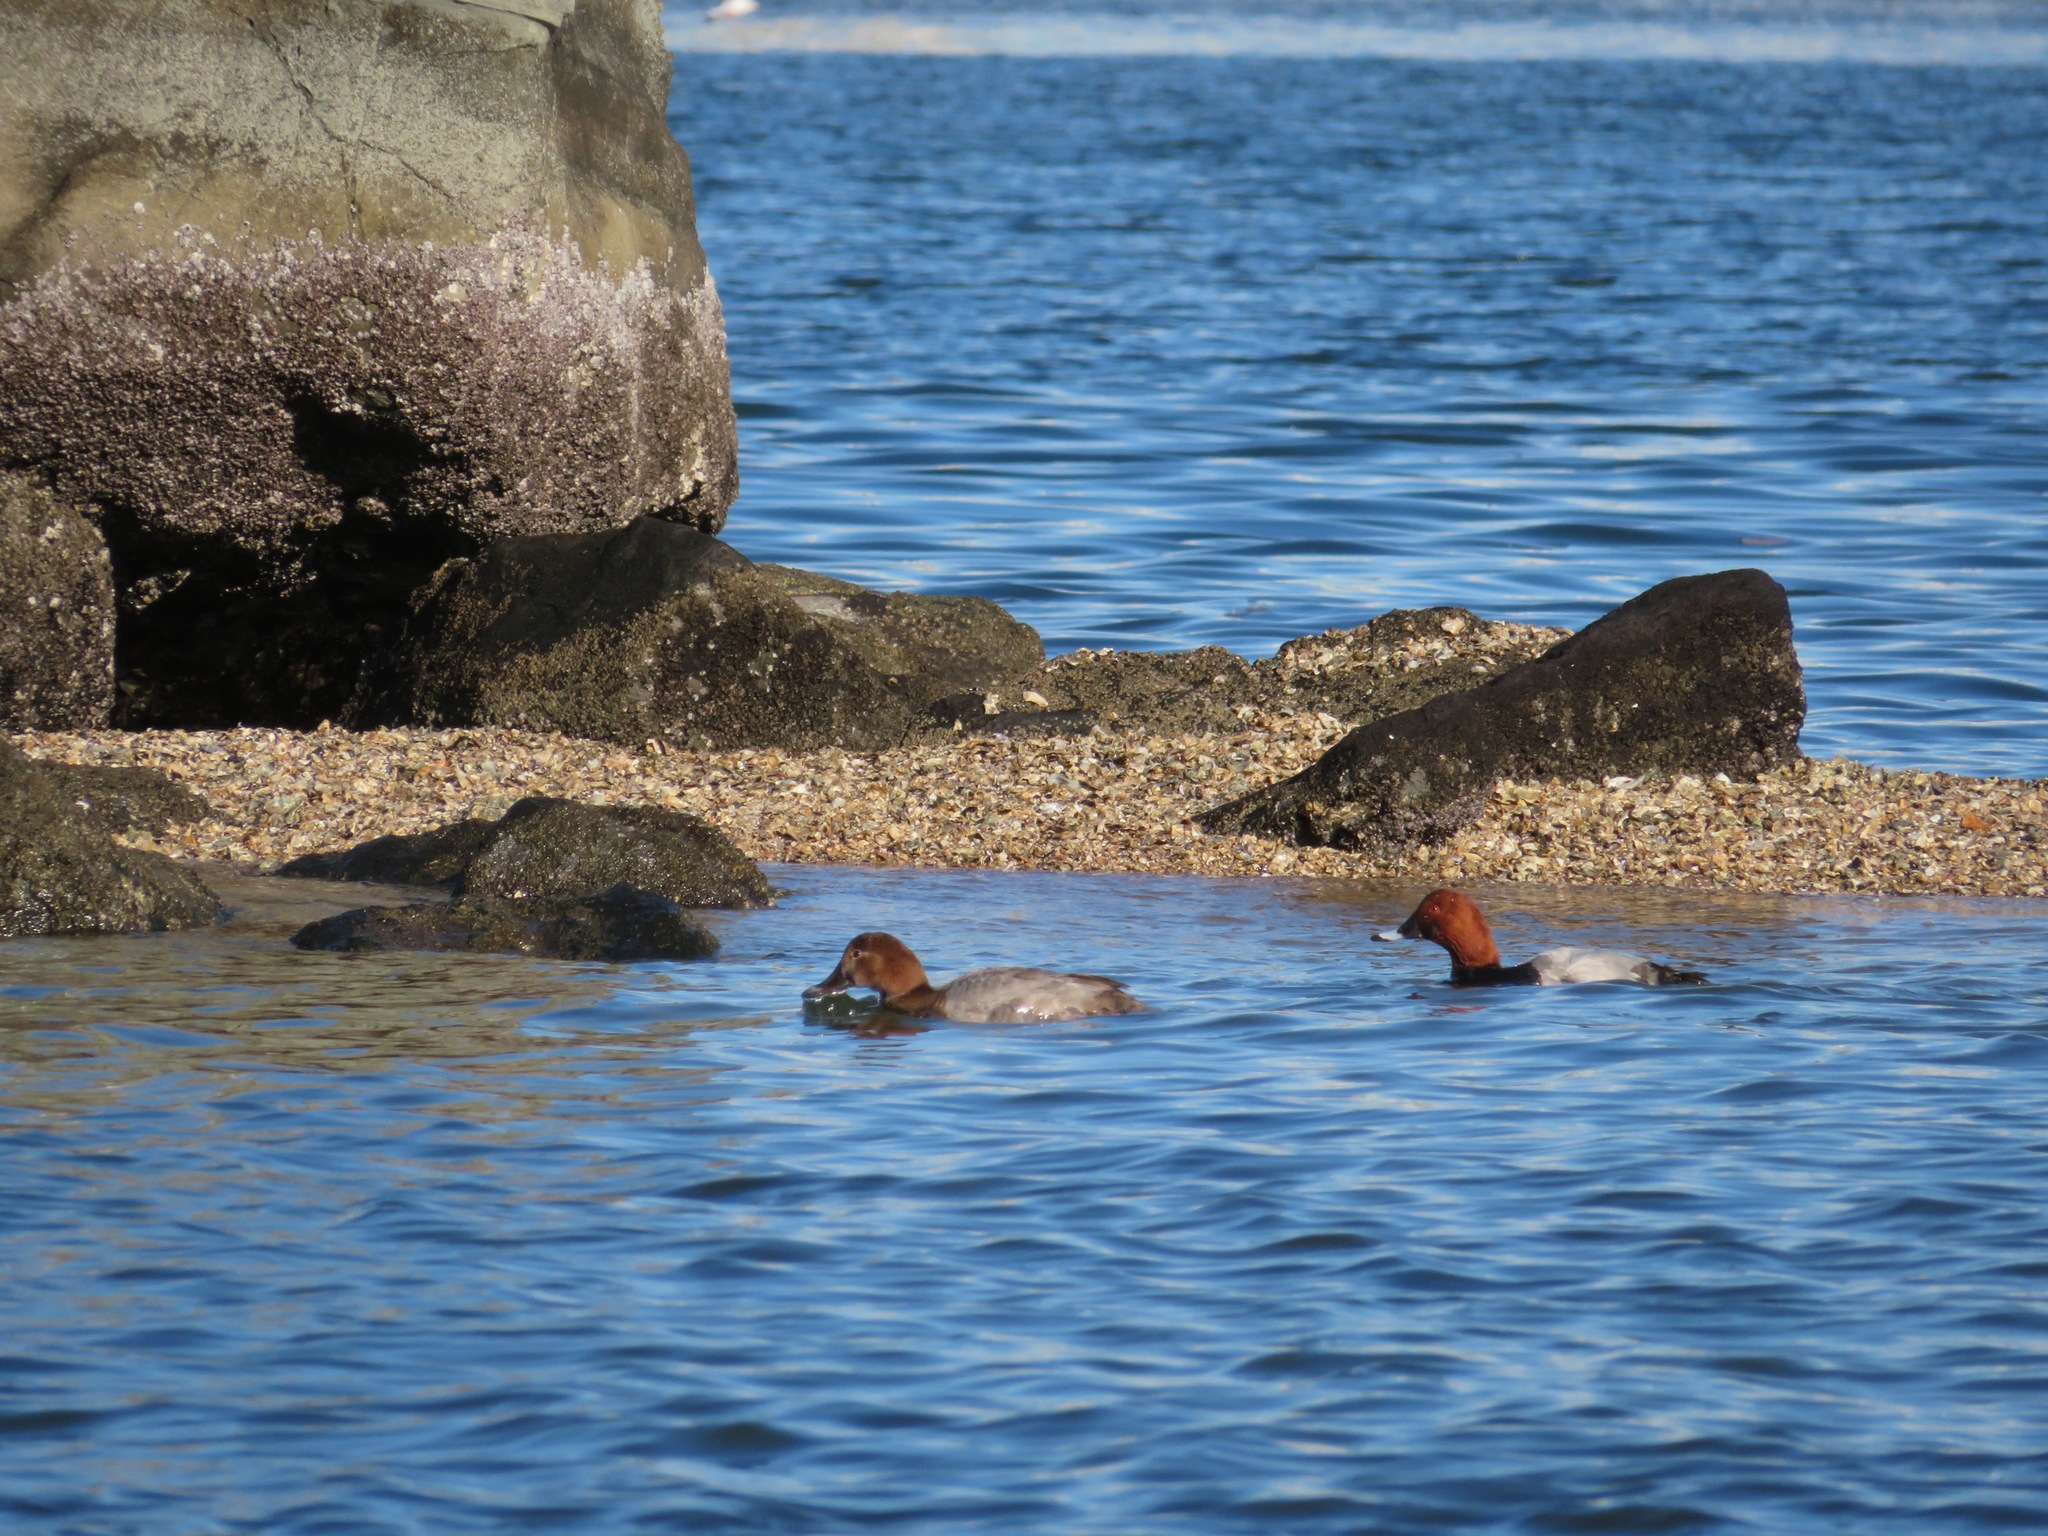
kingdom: Animalia
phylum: Chordata
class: Aves
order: Anseriformes
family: Anatidae
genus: Aythya
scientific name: Aythya ferina
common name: Common pochard
